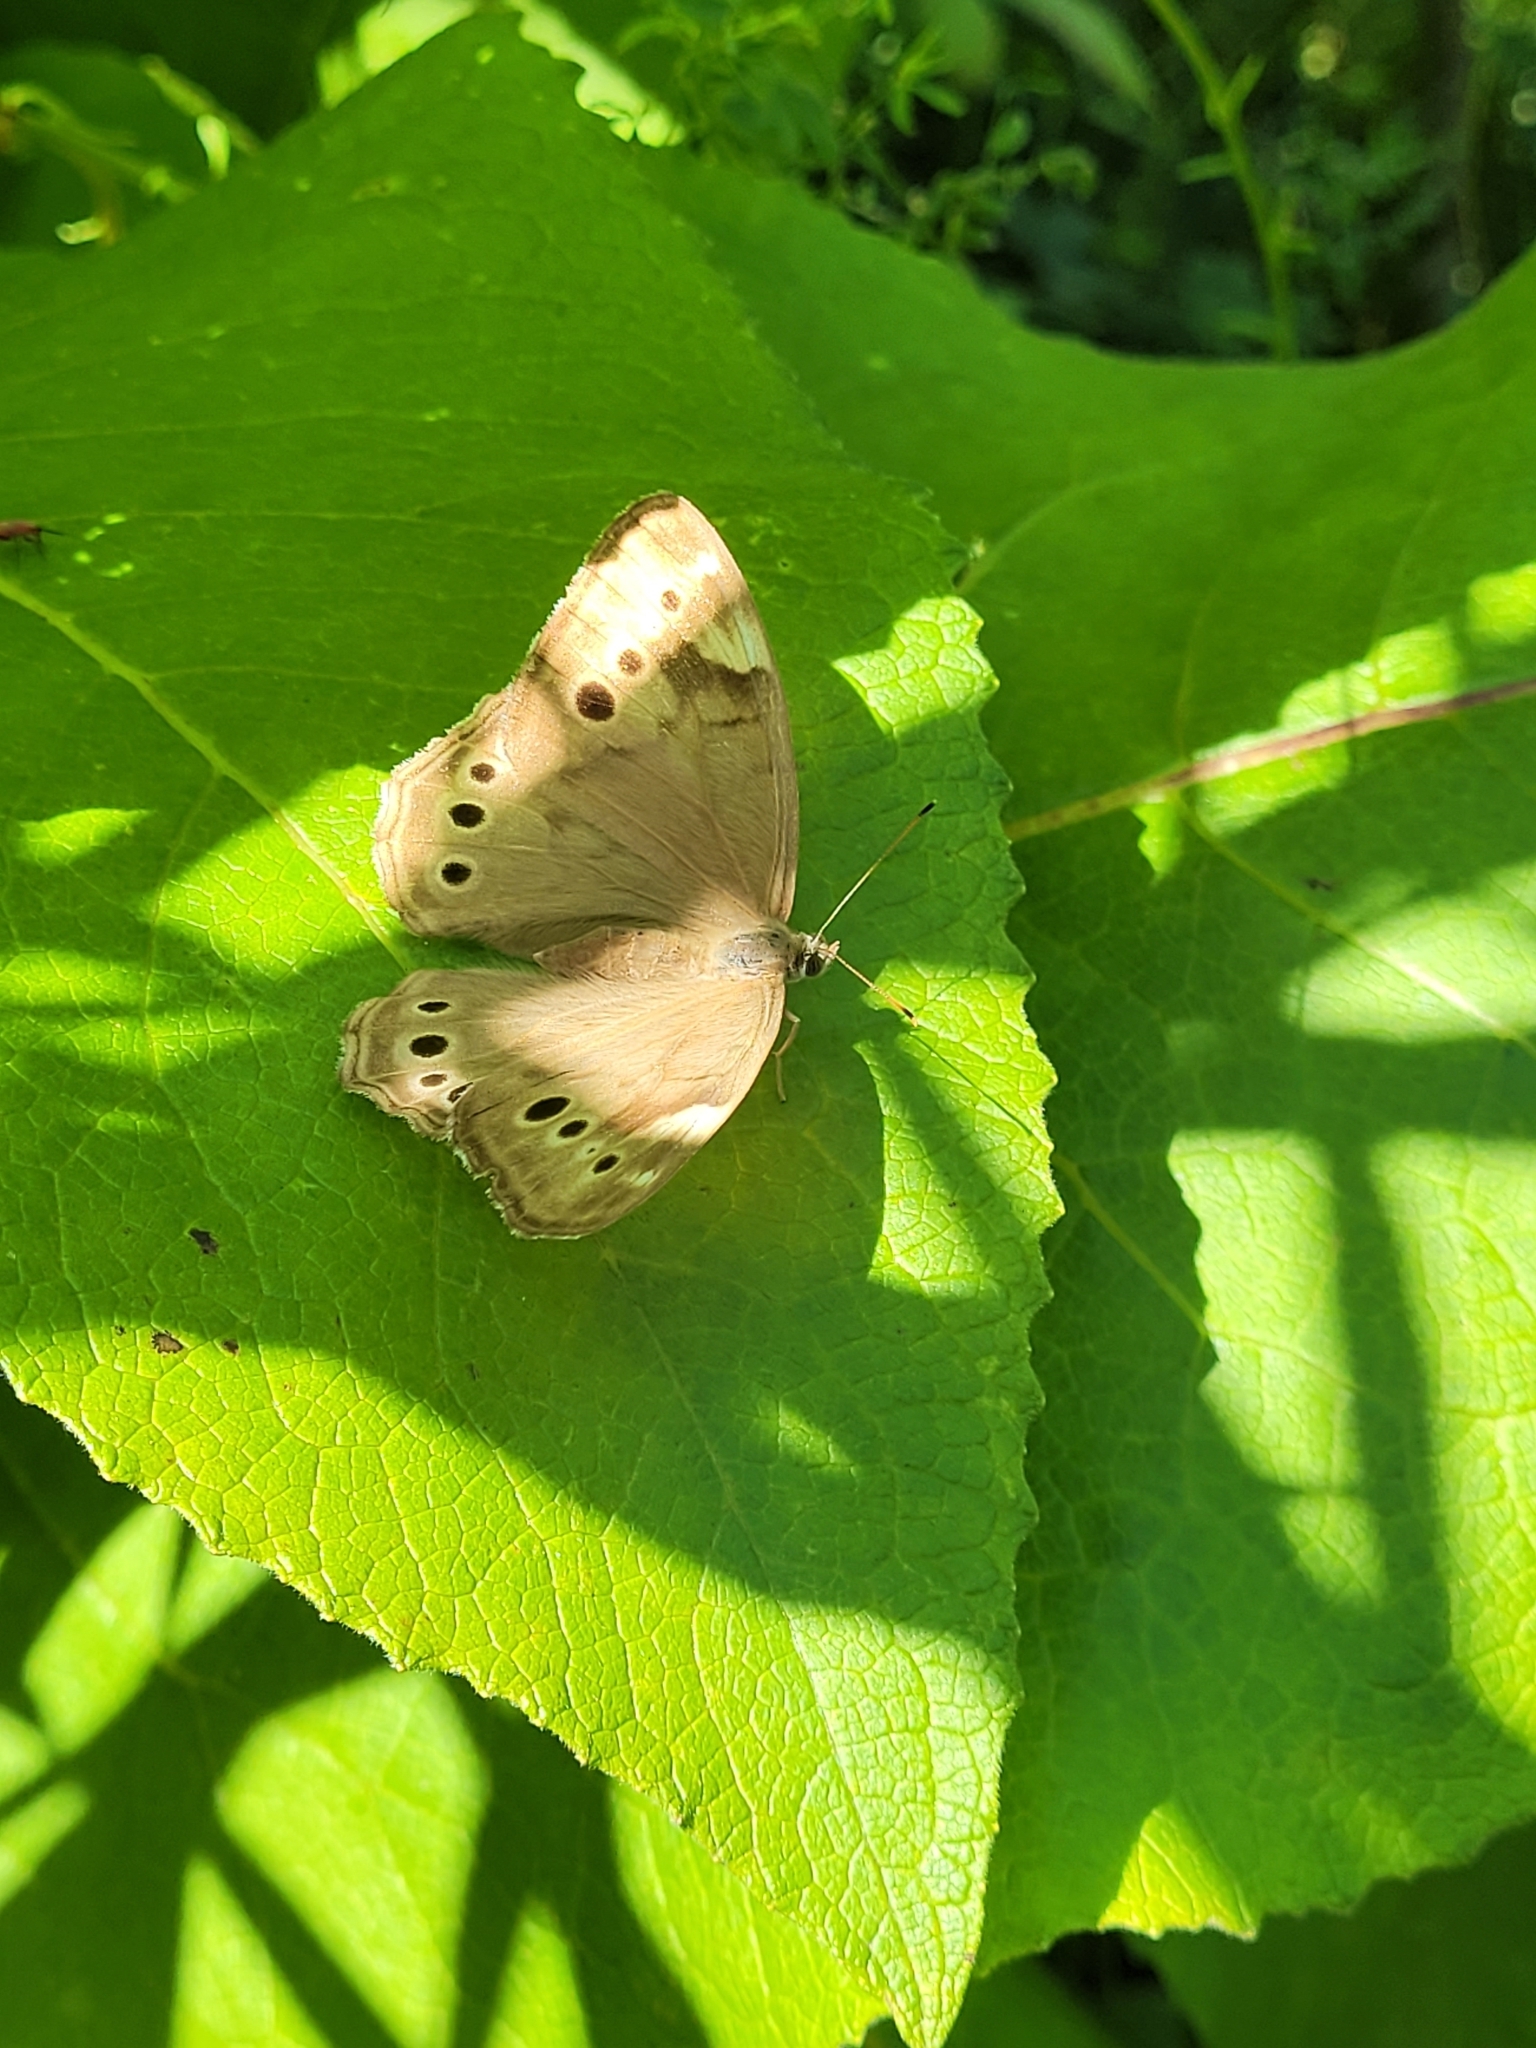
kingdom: Animalia
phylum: Arthropoda
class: Insecta
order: Lepidoptera
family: Nymphalidae
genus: Lethe
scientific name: Lethe anthedon
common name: Northern pearly-eye
